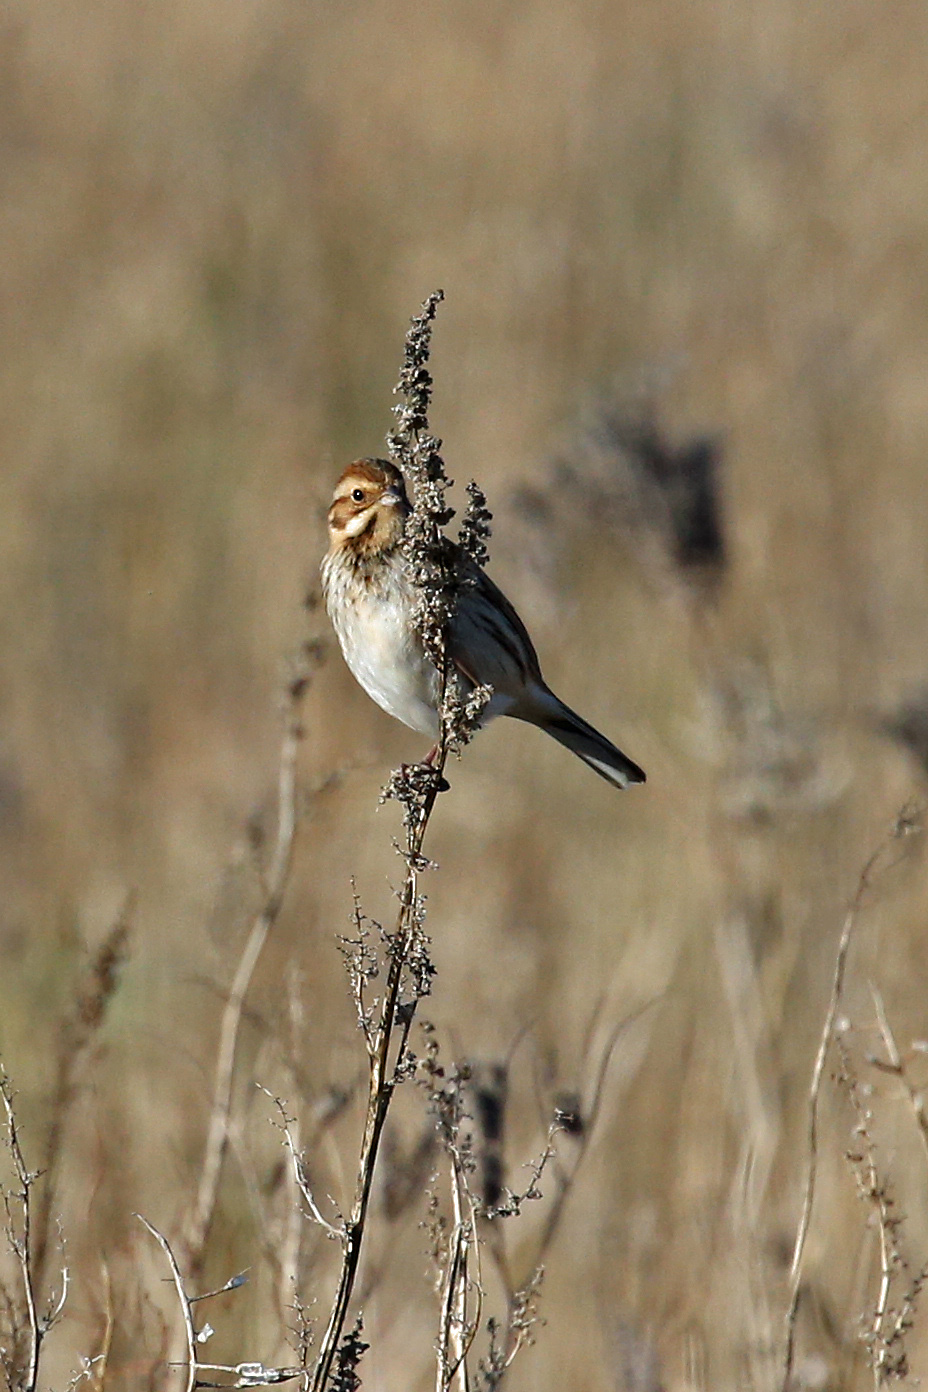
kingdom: Animalia
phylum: Chordata
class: Aves
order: Passeriformes
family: Emberizidae
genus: Emberiza
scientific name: Emberiza schoeniclus
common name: Reed bunting
